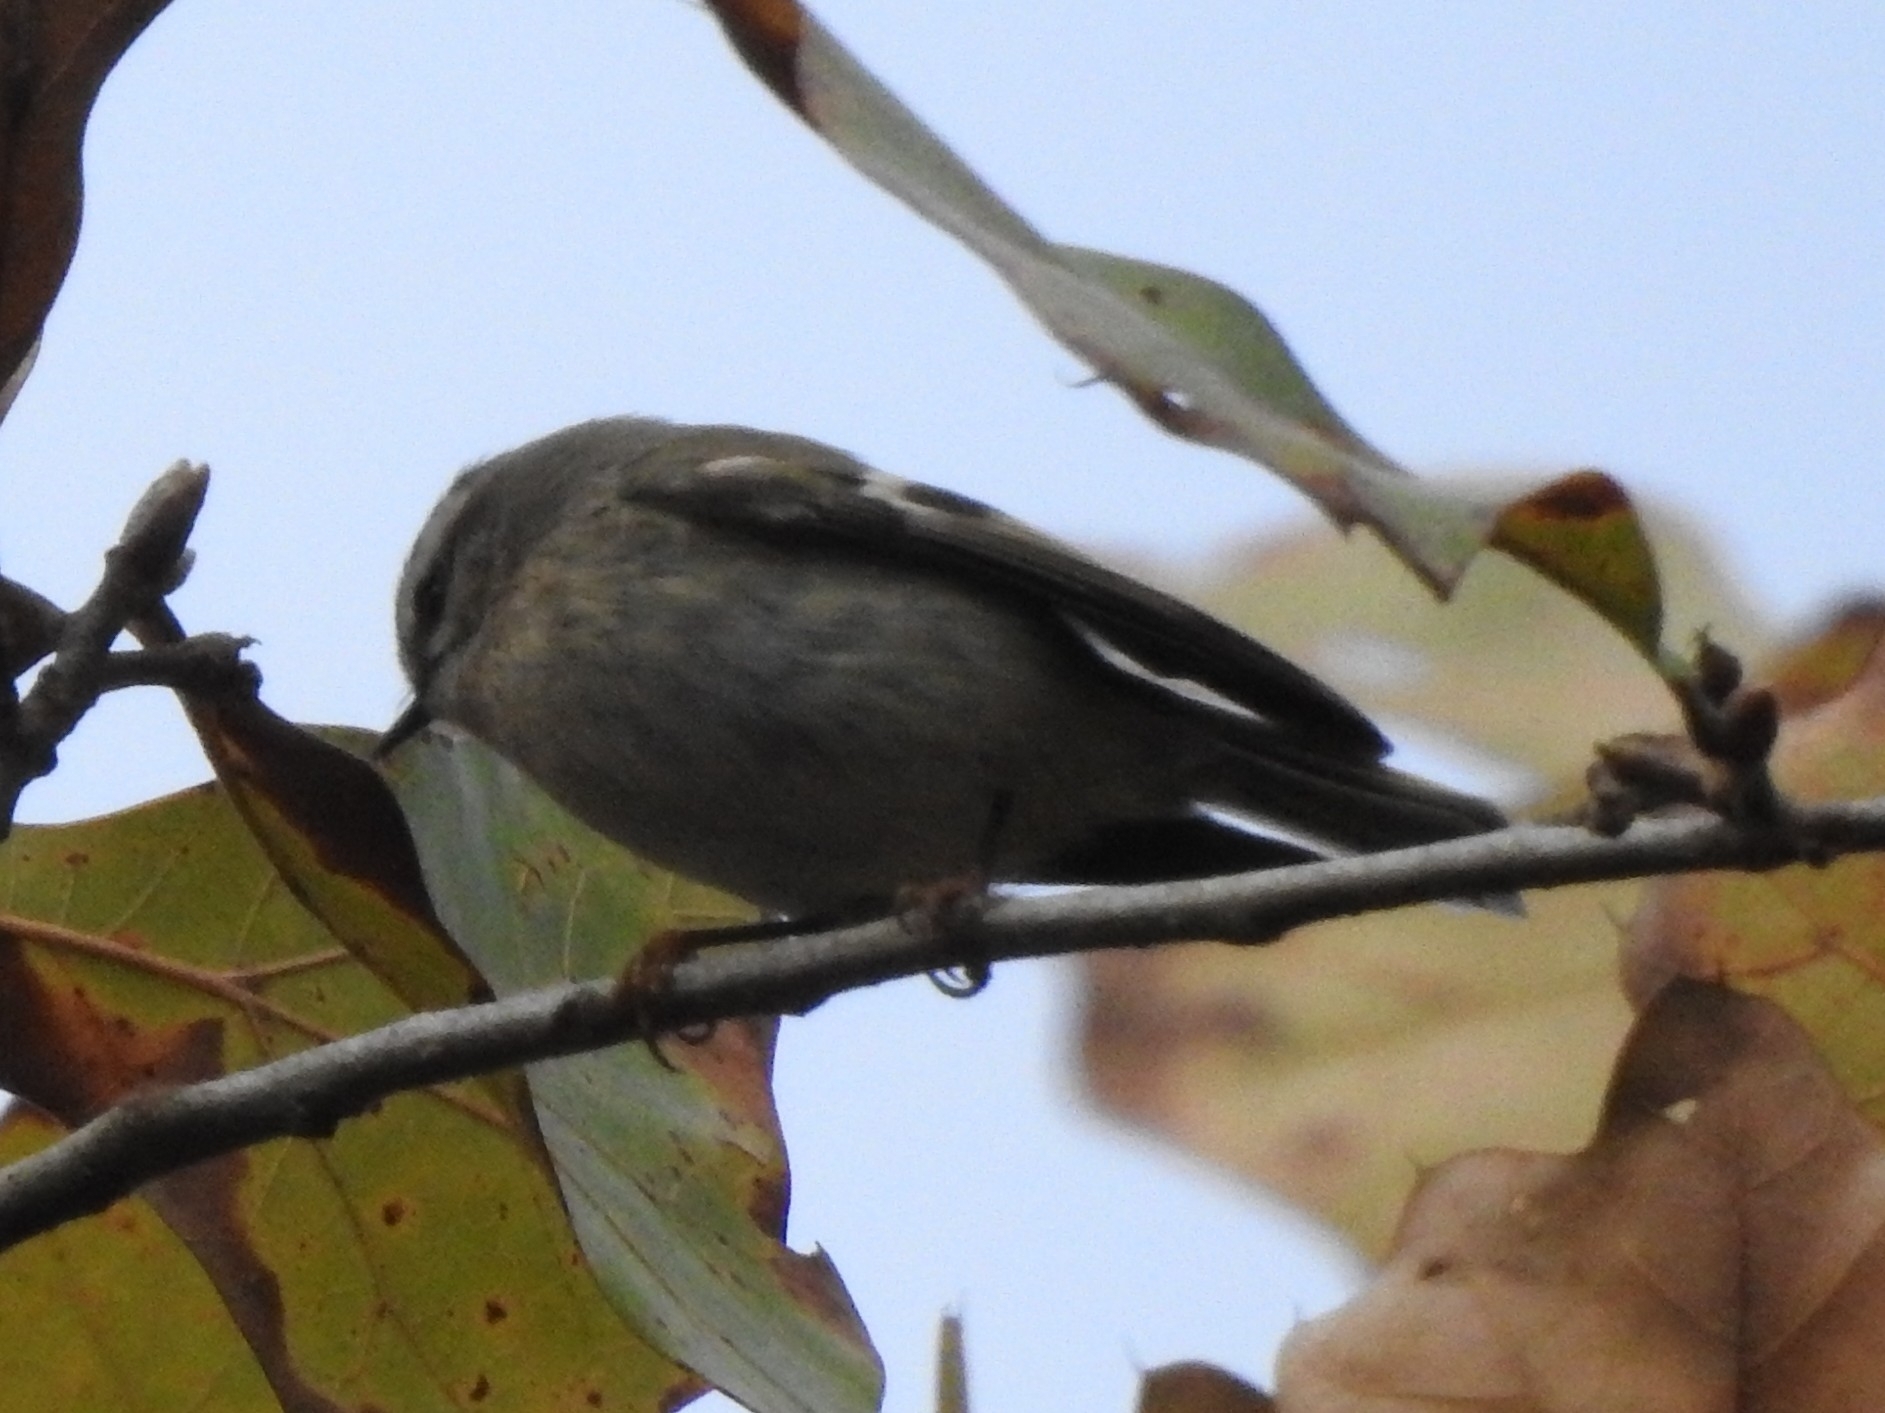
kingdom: Animalia
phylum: Chordata
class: Aves
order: Passeriformes
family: Regulidae
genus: Regulus
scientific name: Regulus satrapa
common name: Golden-crowned kinglet
